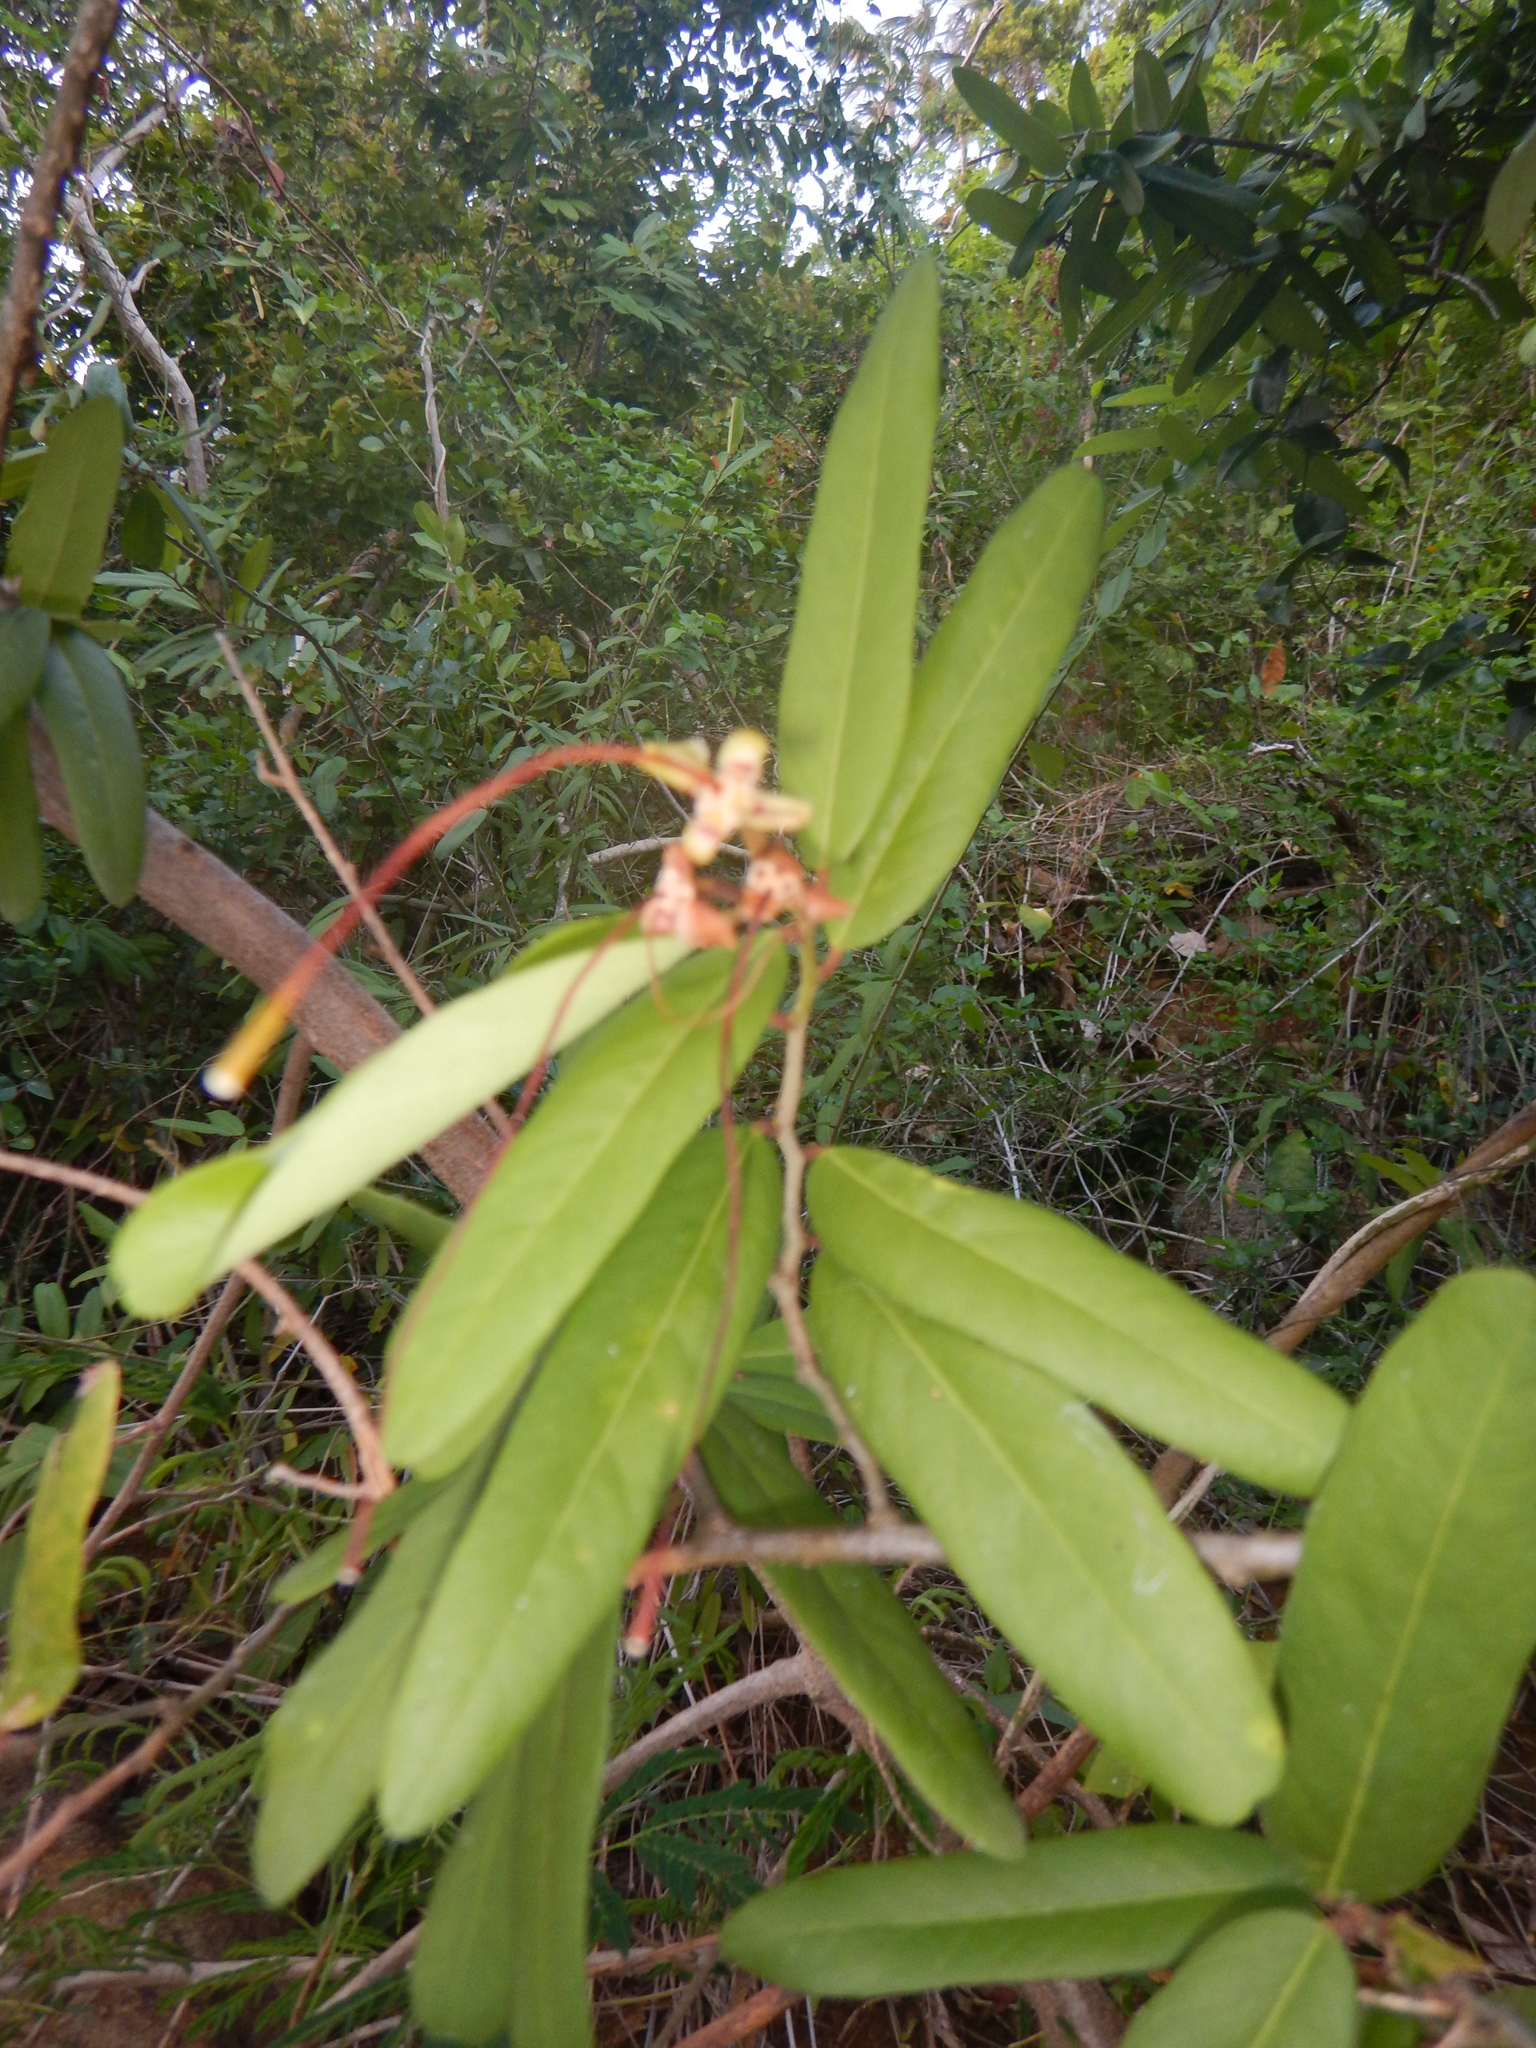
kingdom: Plantae
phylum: Tracheophyta
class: Magnoliopsida
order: Brassicales
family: Capparaceae
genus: Cynophalla
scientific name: Cynophalla flexuosa
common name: Capertree
